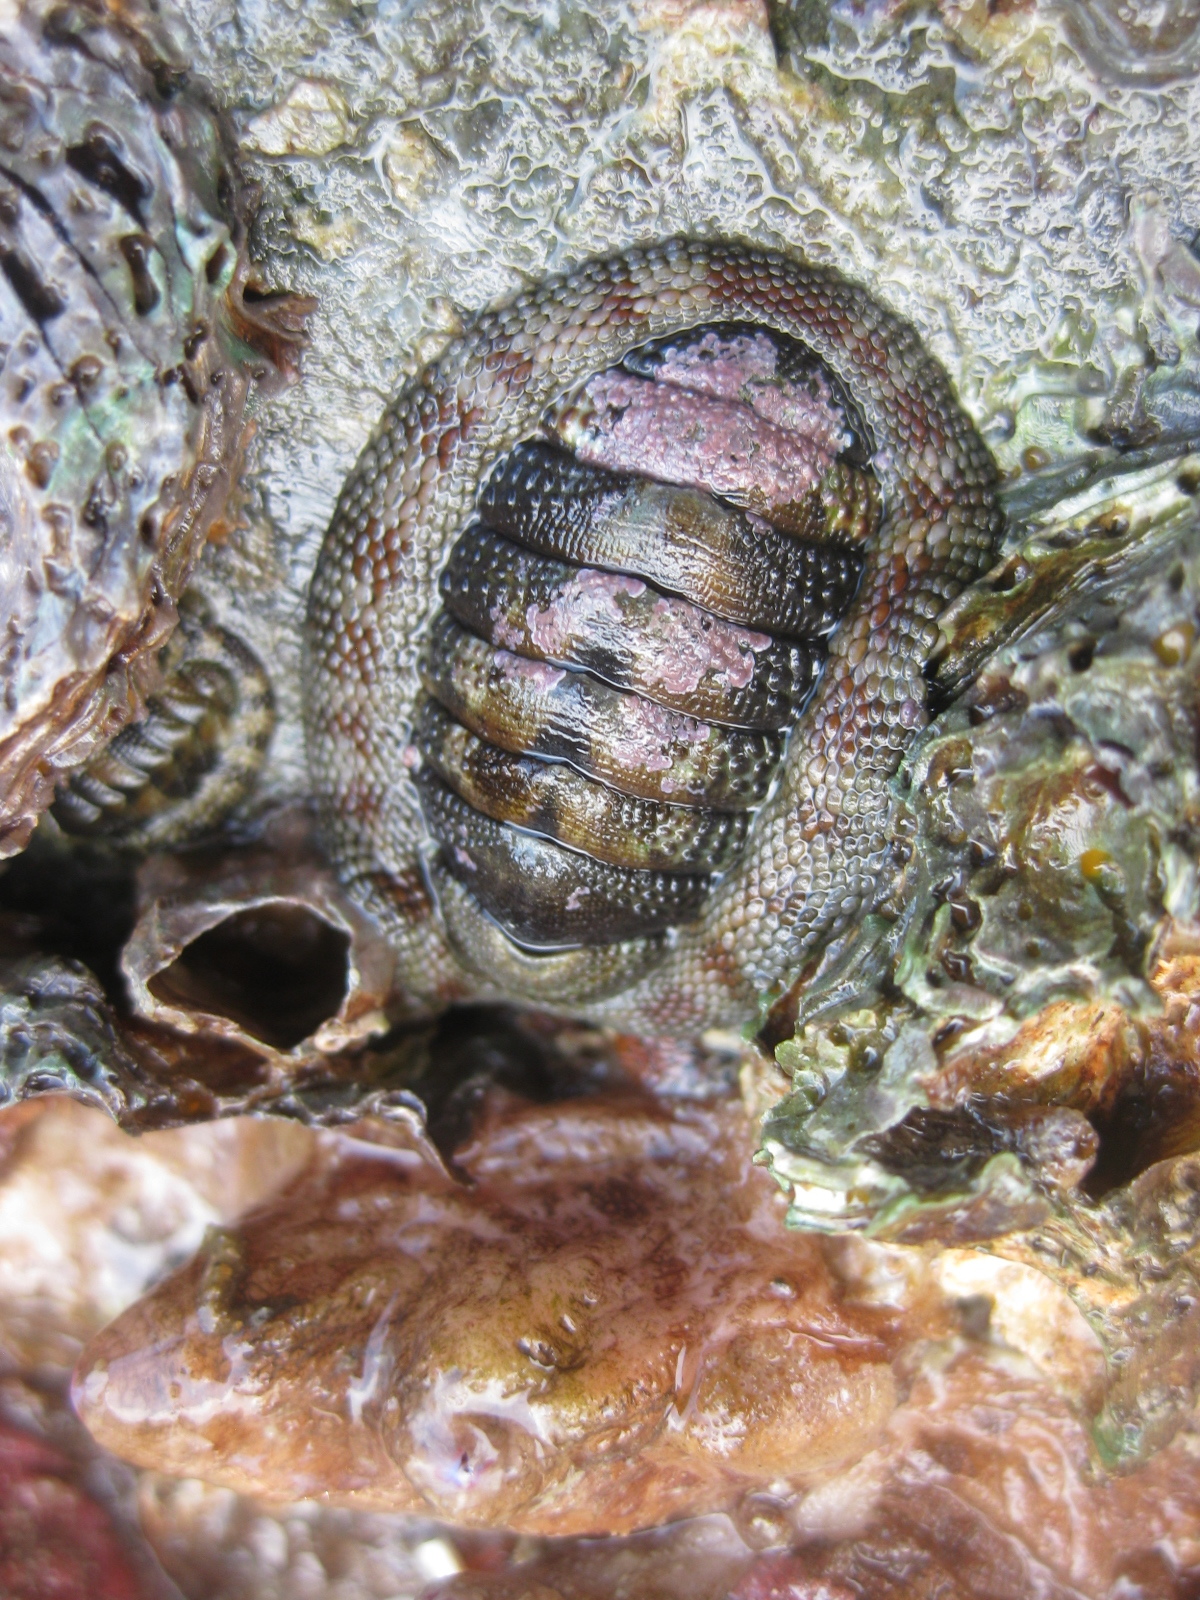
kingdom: Animalia
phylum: Mollusca
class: Polyplacophora
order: Chitonida
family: Chitonidae
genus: Sypharochiton
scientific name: Sypharochiton pelliserpentis
